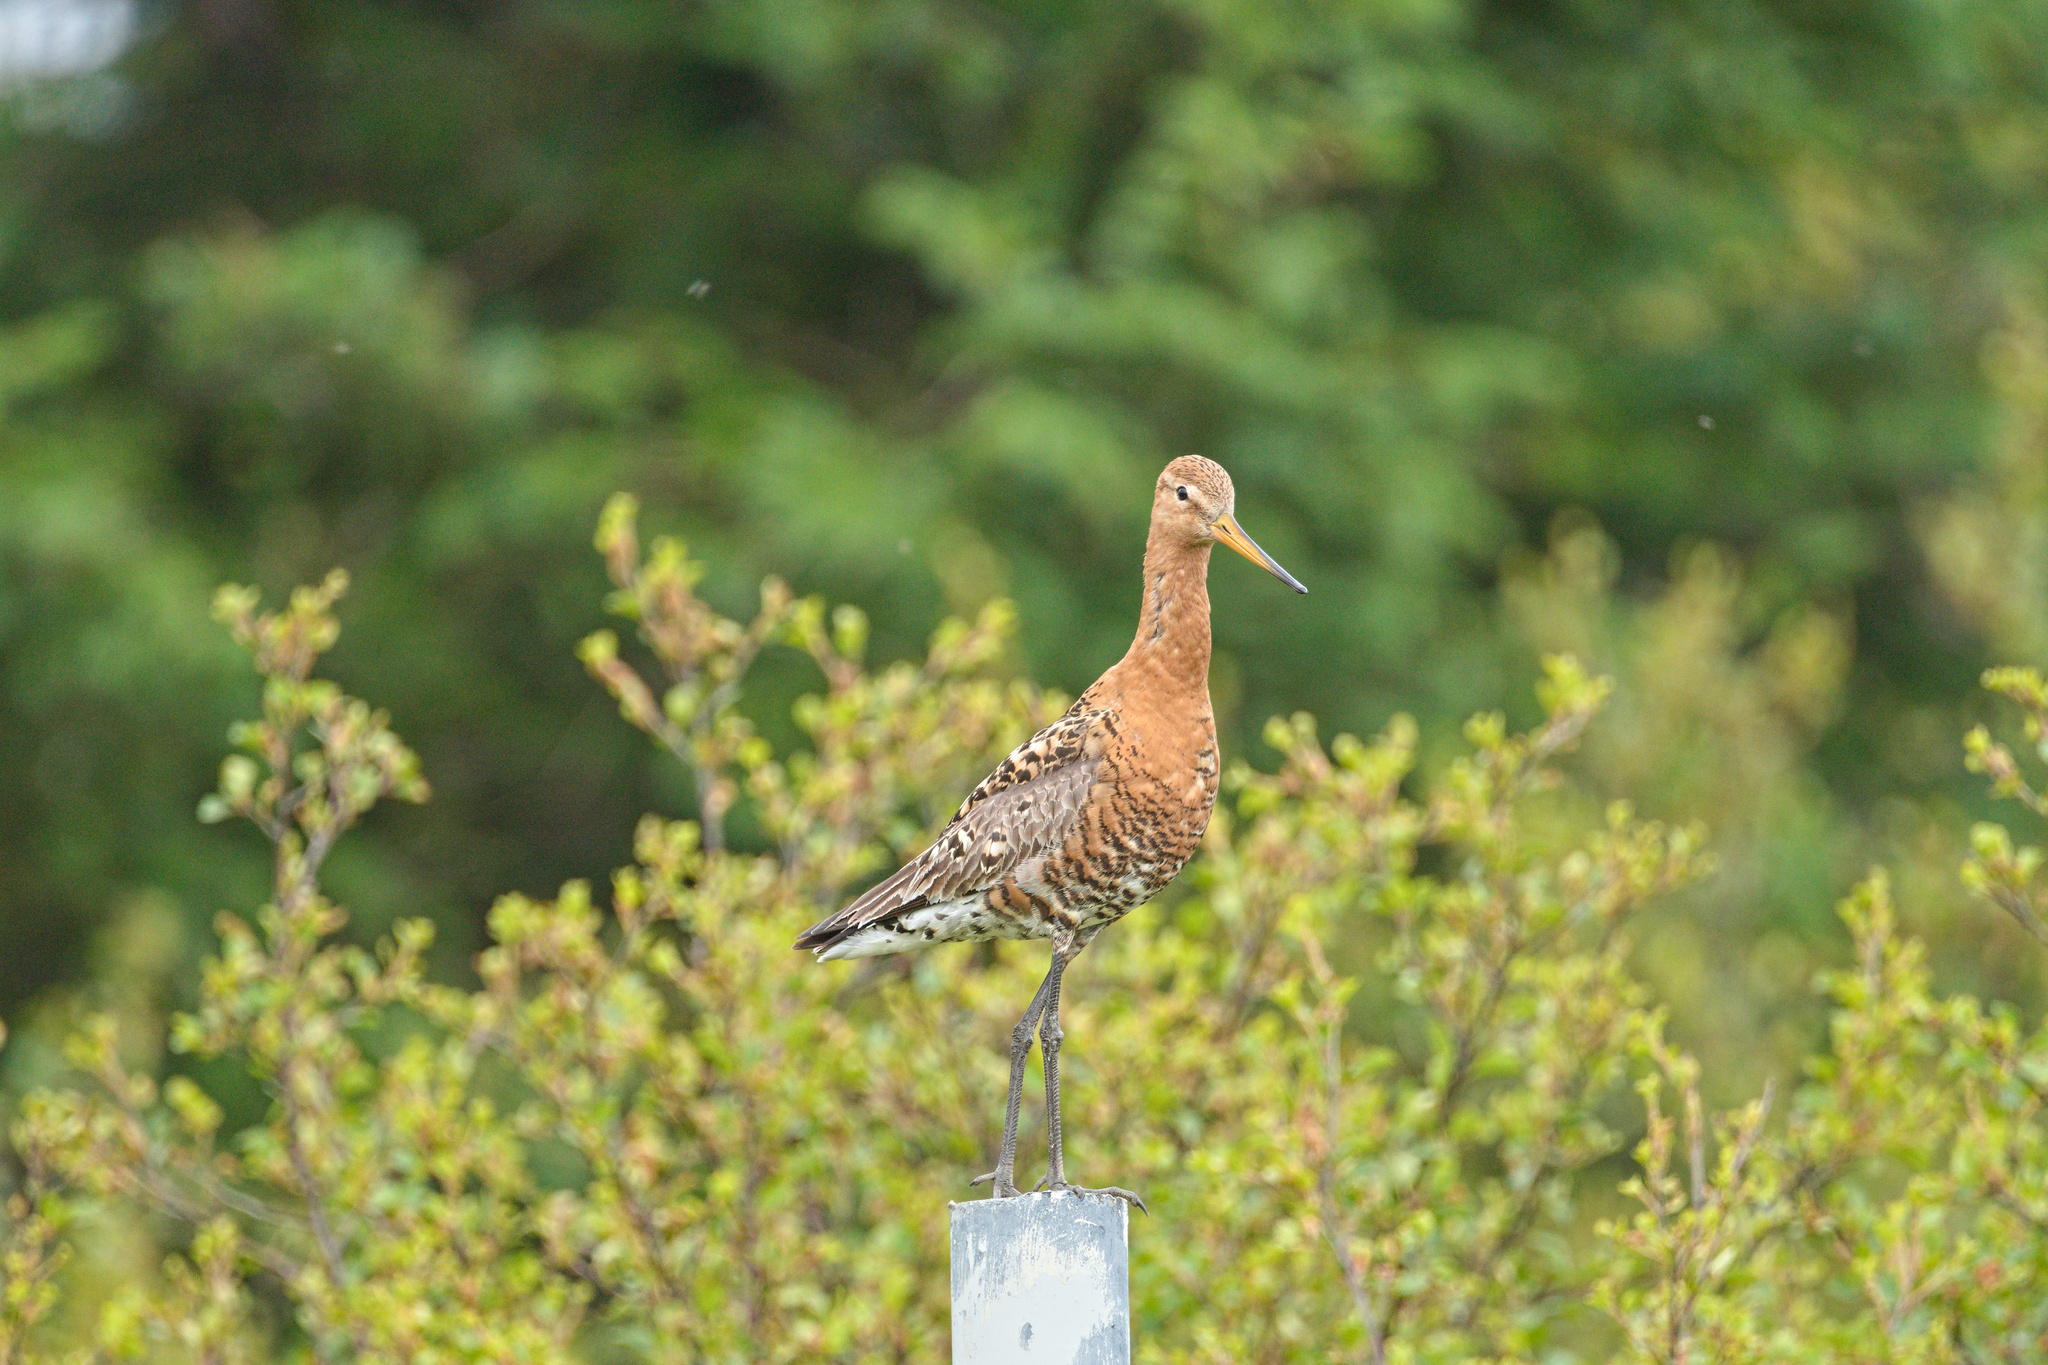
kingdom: Animalia
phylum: Chordata
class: Aves
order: Charadriiformes
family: Scolopacidae
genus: Limosa
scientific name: Limosa limosa
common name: Black-tailed godwit
